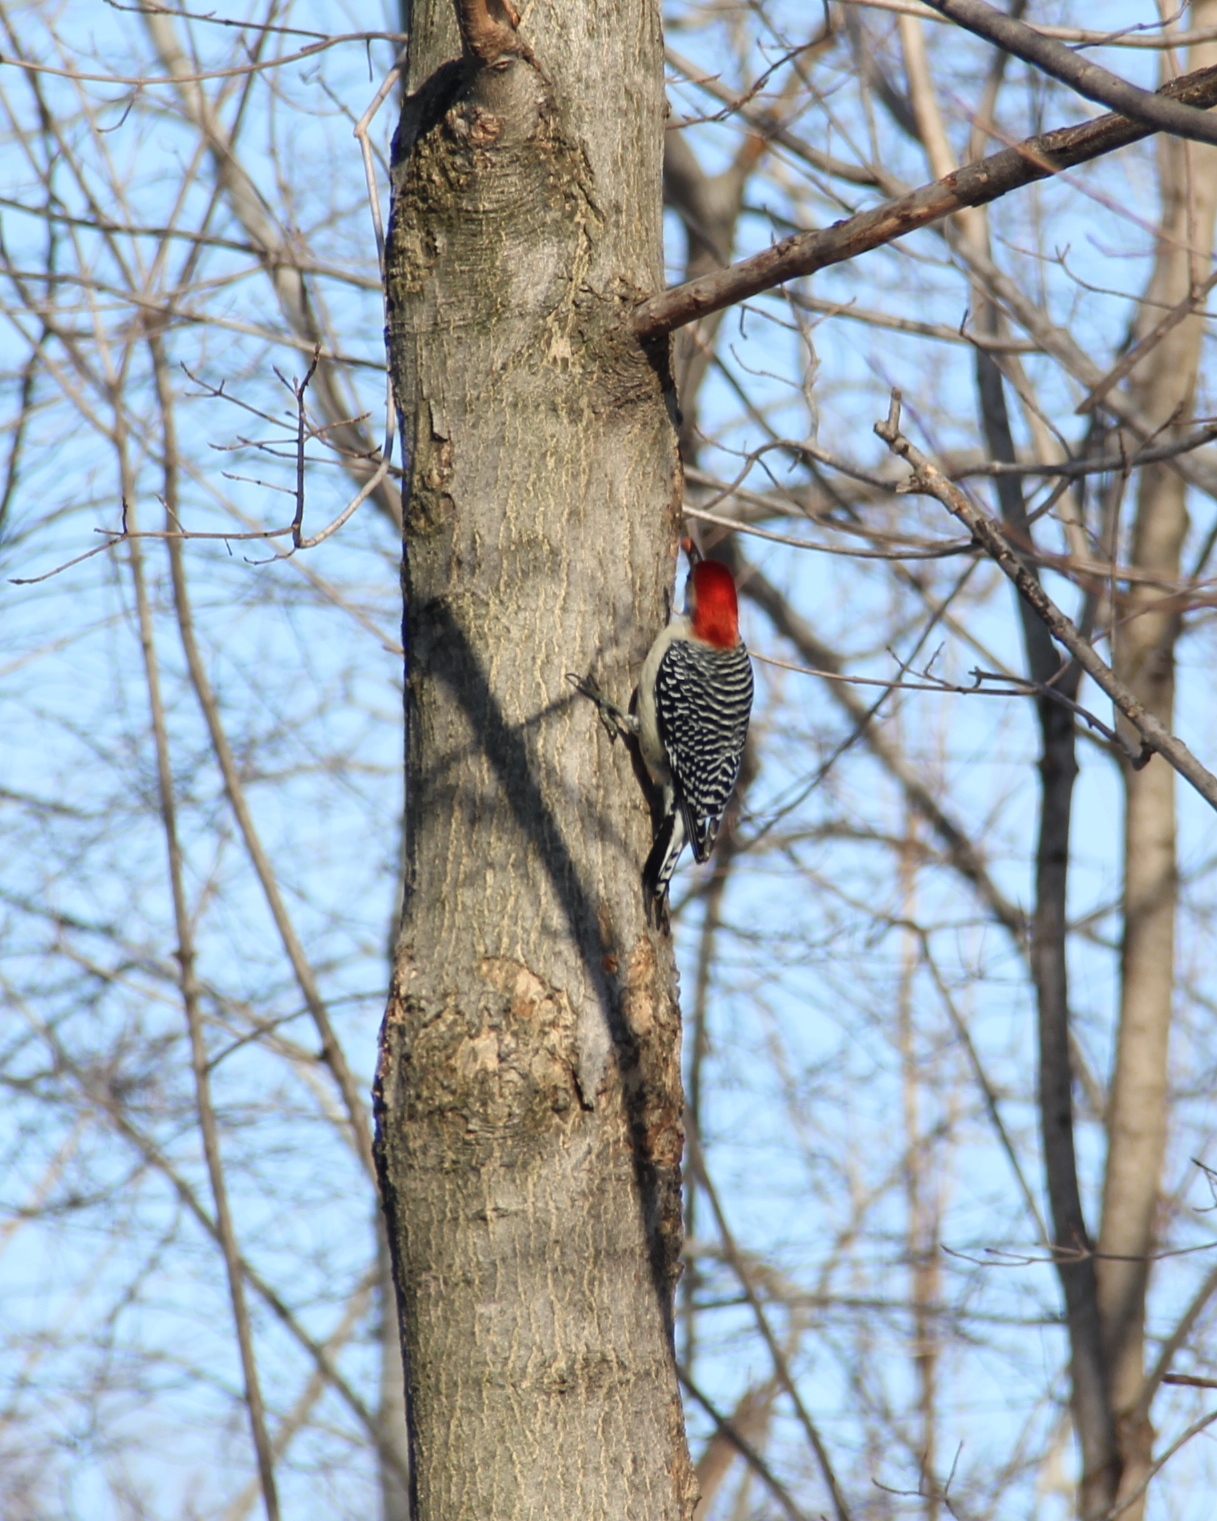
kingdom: Animalia
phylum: Chordata
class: Aves
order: Piciformes
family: Picidae
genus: Melanerpes
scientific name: Melanerpes carolinus
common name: Red-bellied woodpecker
